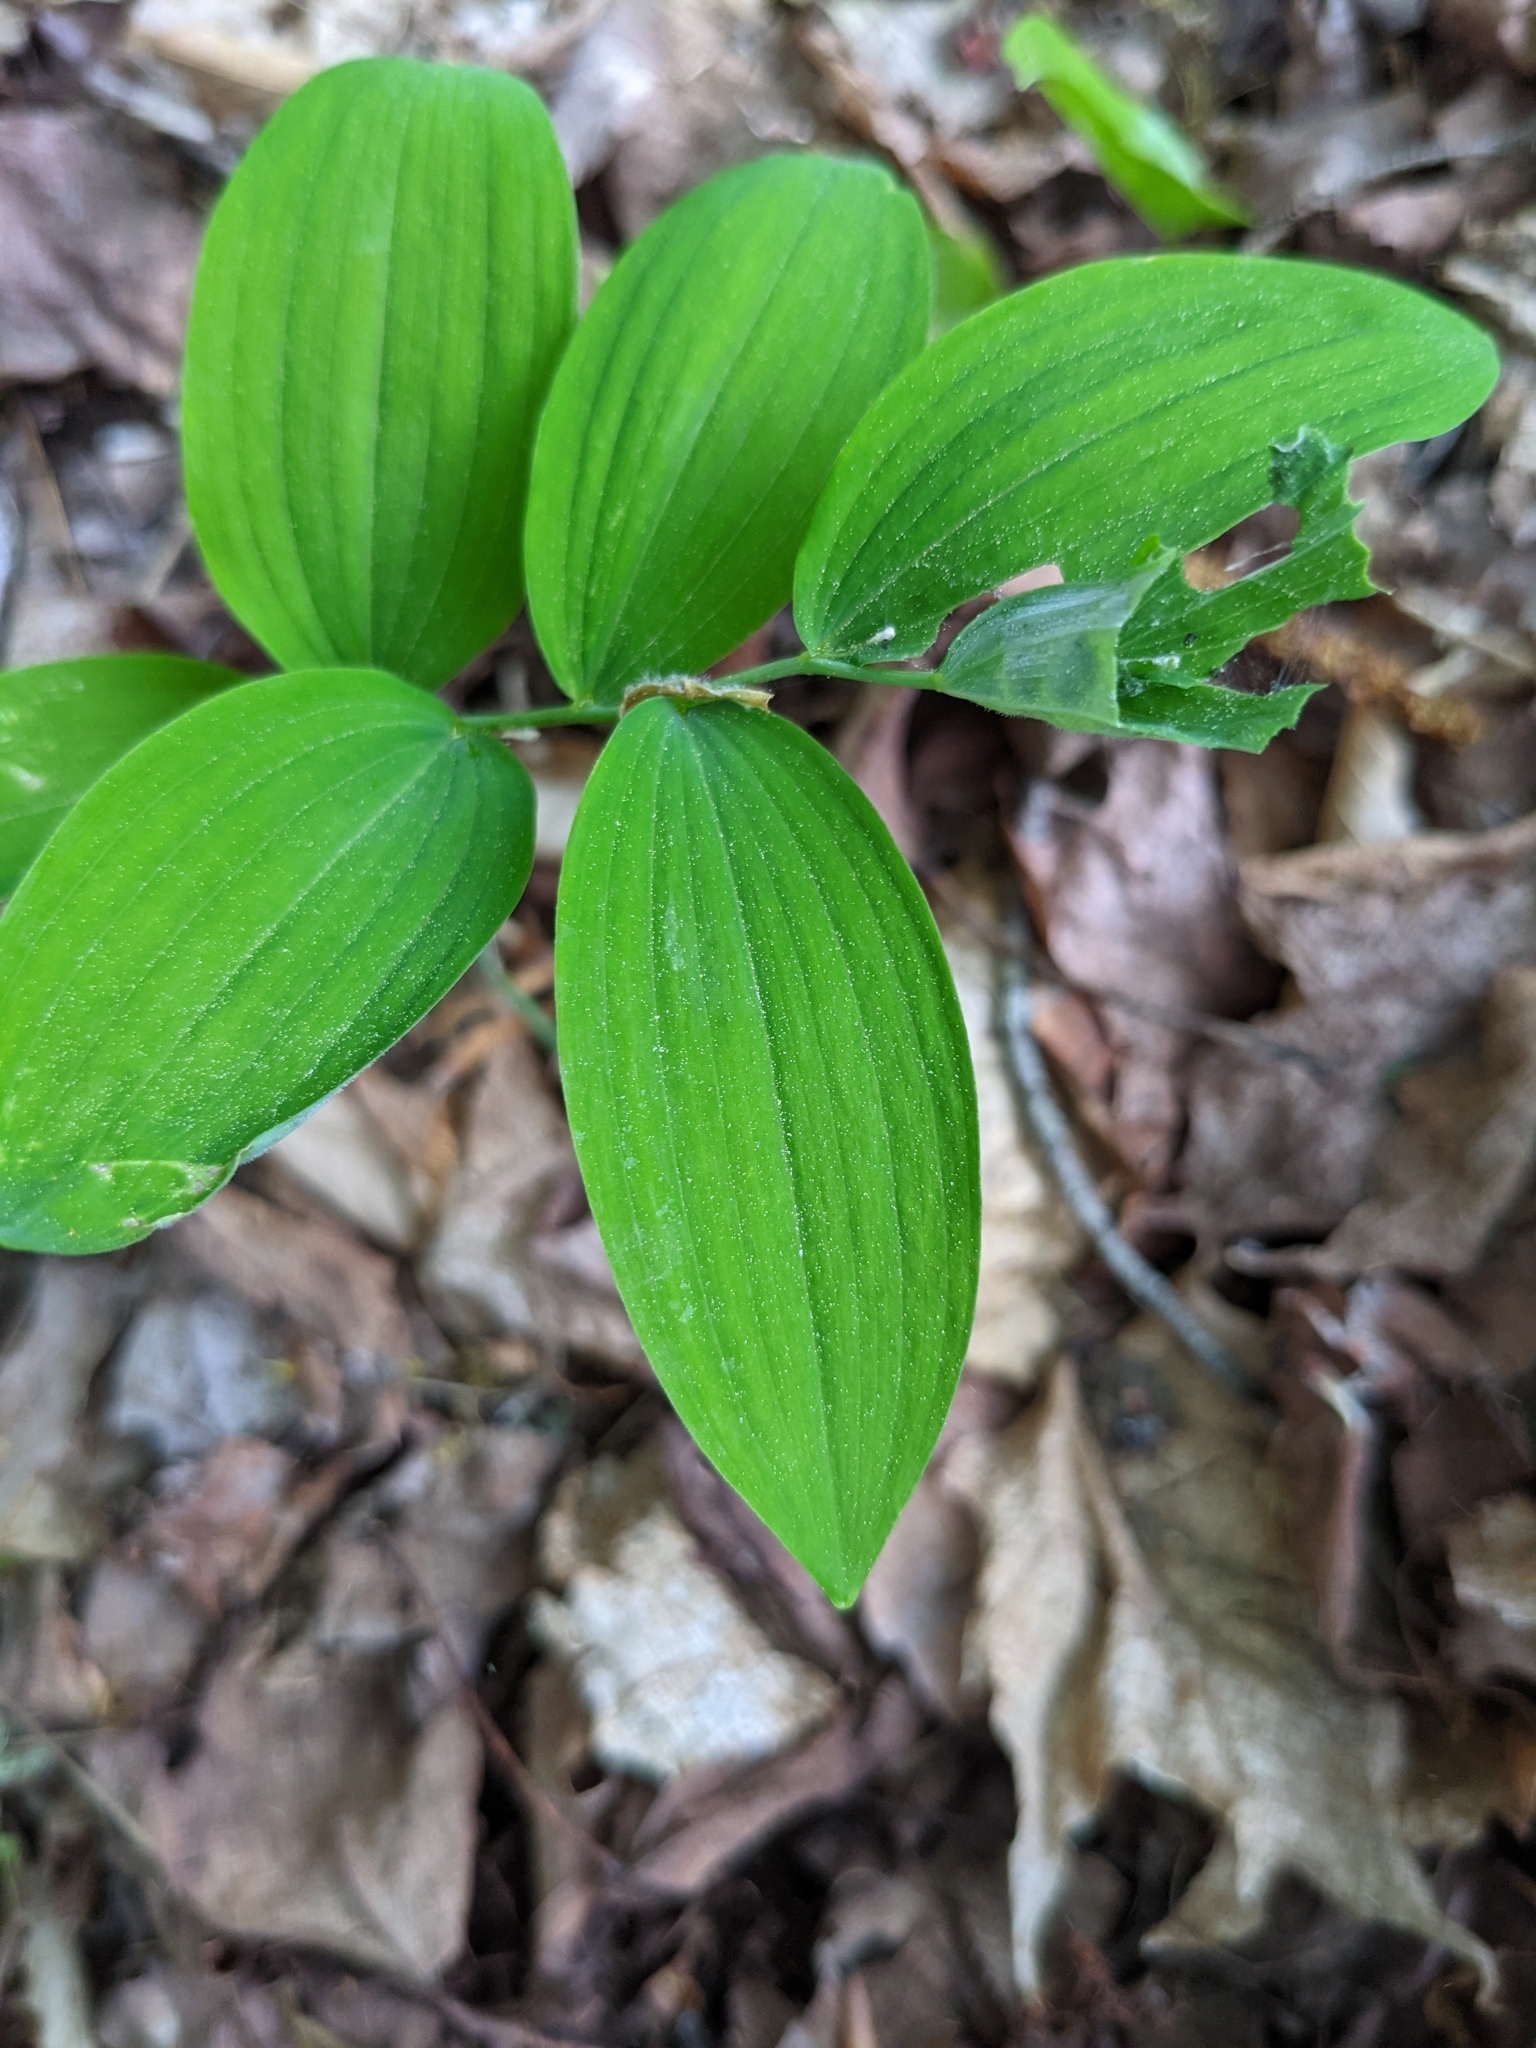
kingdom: Plantae
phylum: Tracheophyta
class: Liliopsida
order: Asparagales
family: Asparagaceae
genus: Polygonatum
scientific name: Polygonatum pubescens
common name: Downy solomon's seal
